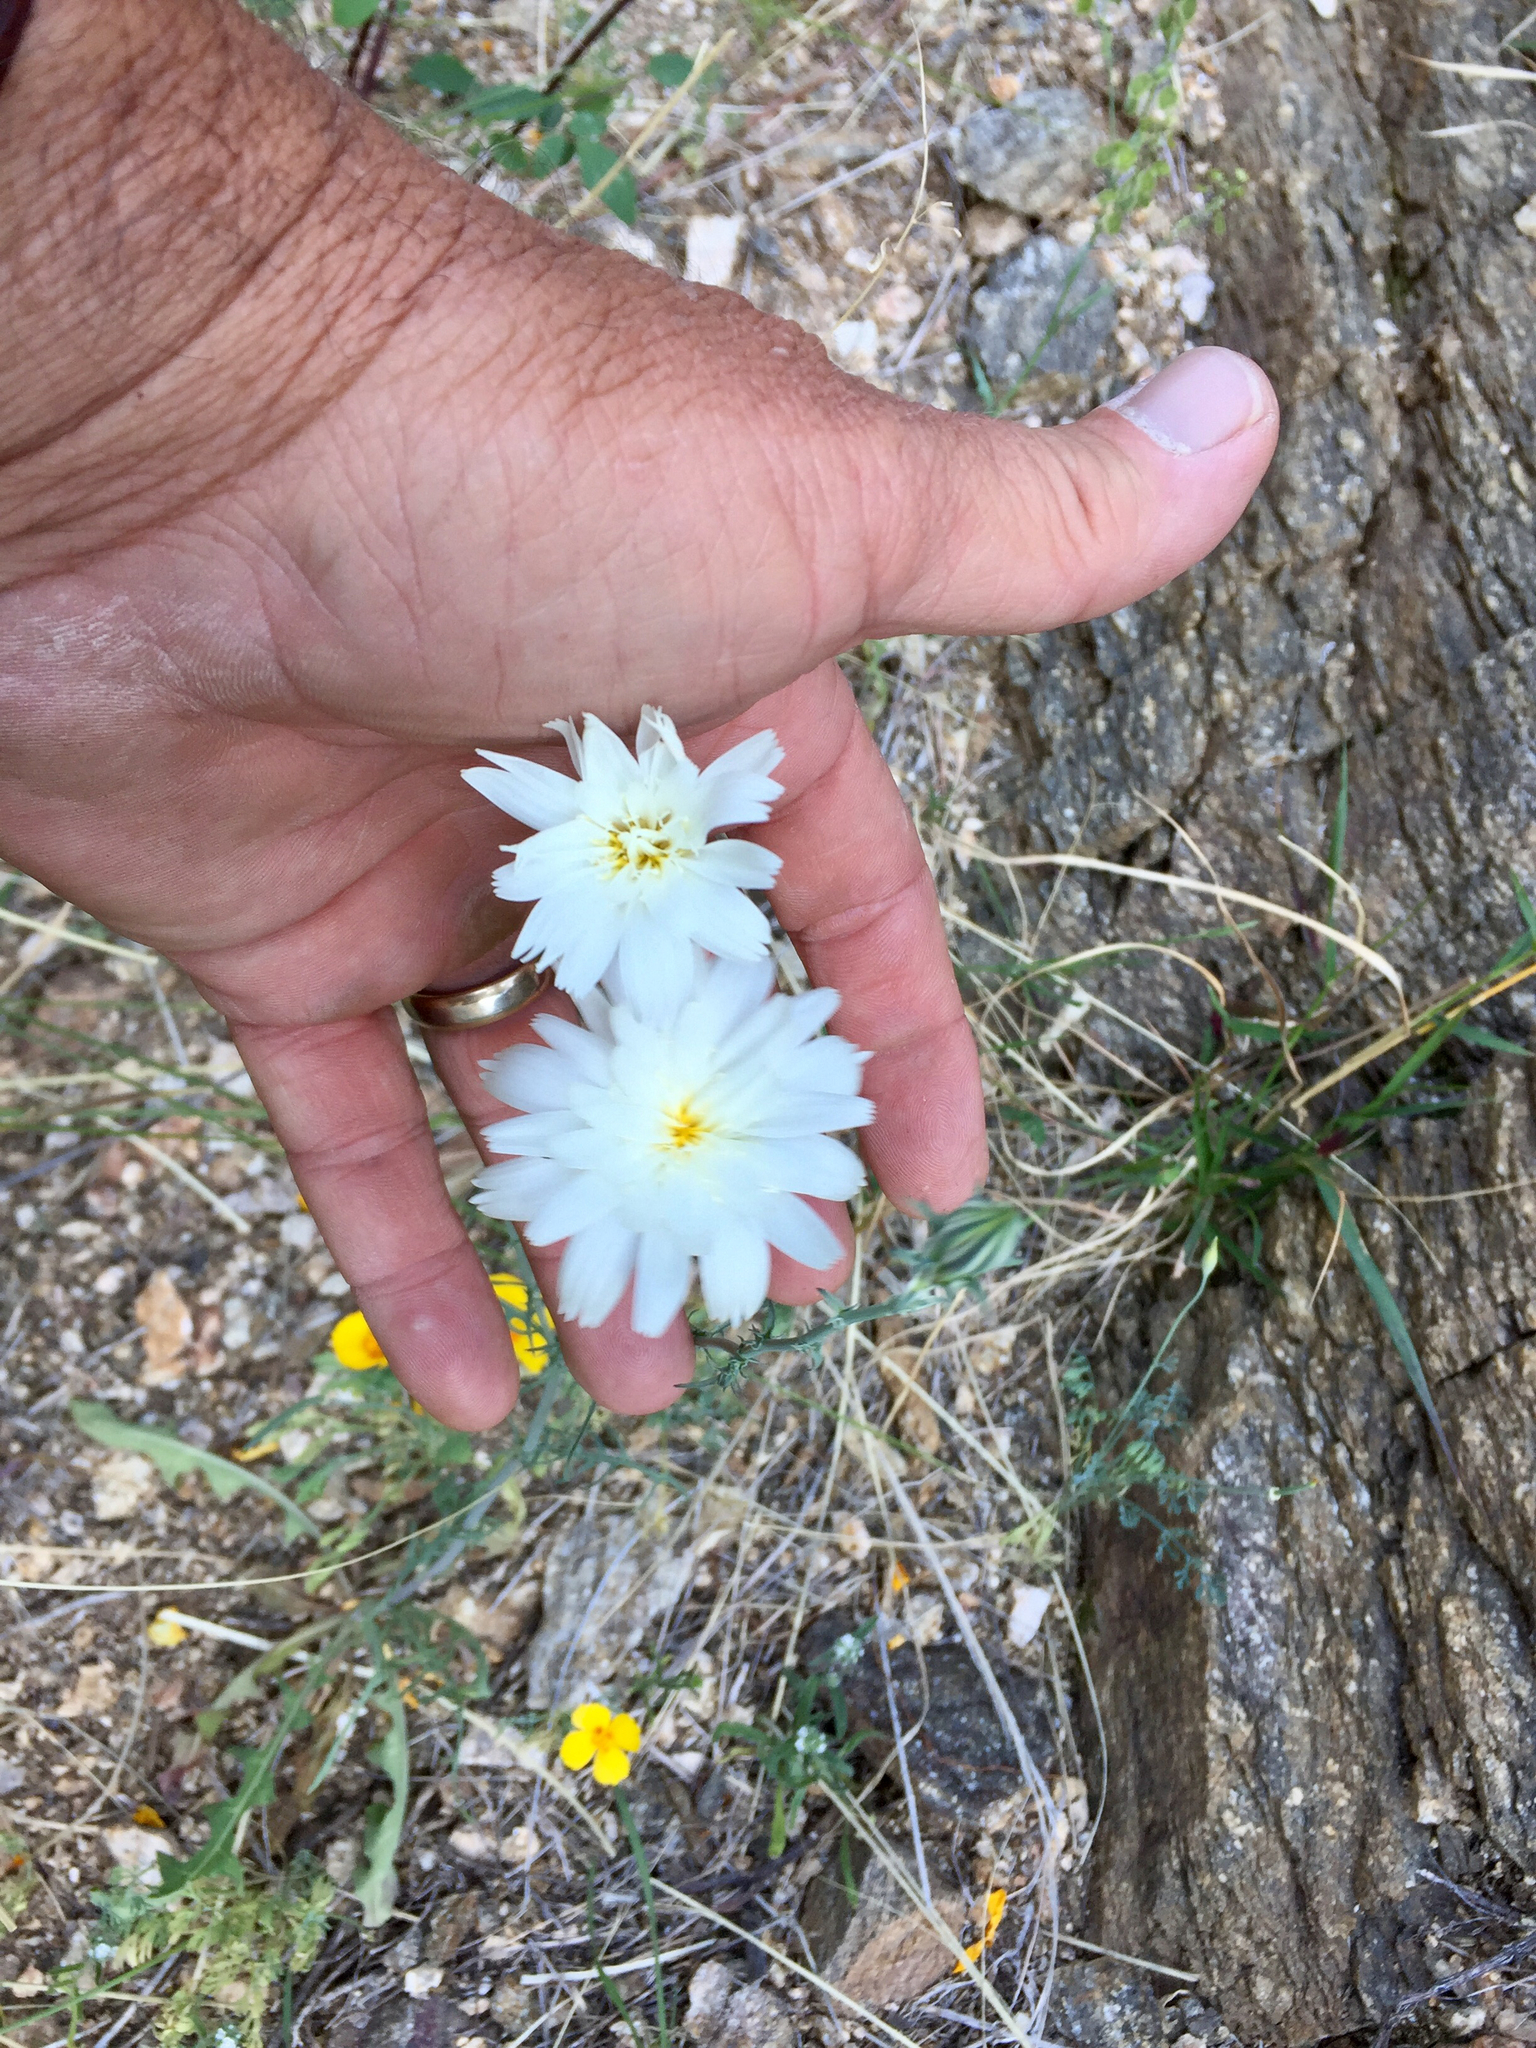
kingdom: Plantae
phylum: Tracheophyta
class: Magnoliopsida
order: Asterales
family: Asteraceae
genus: Rafinesquia
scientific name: Rafinesquia neomexicana
